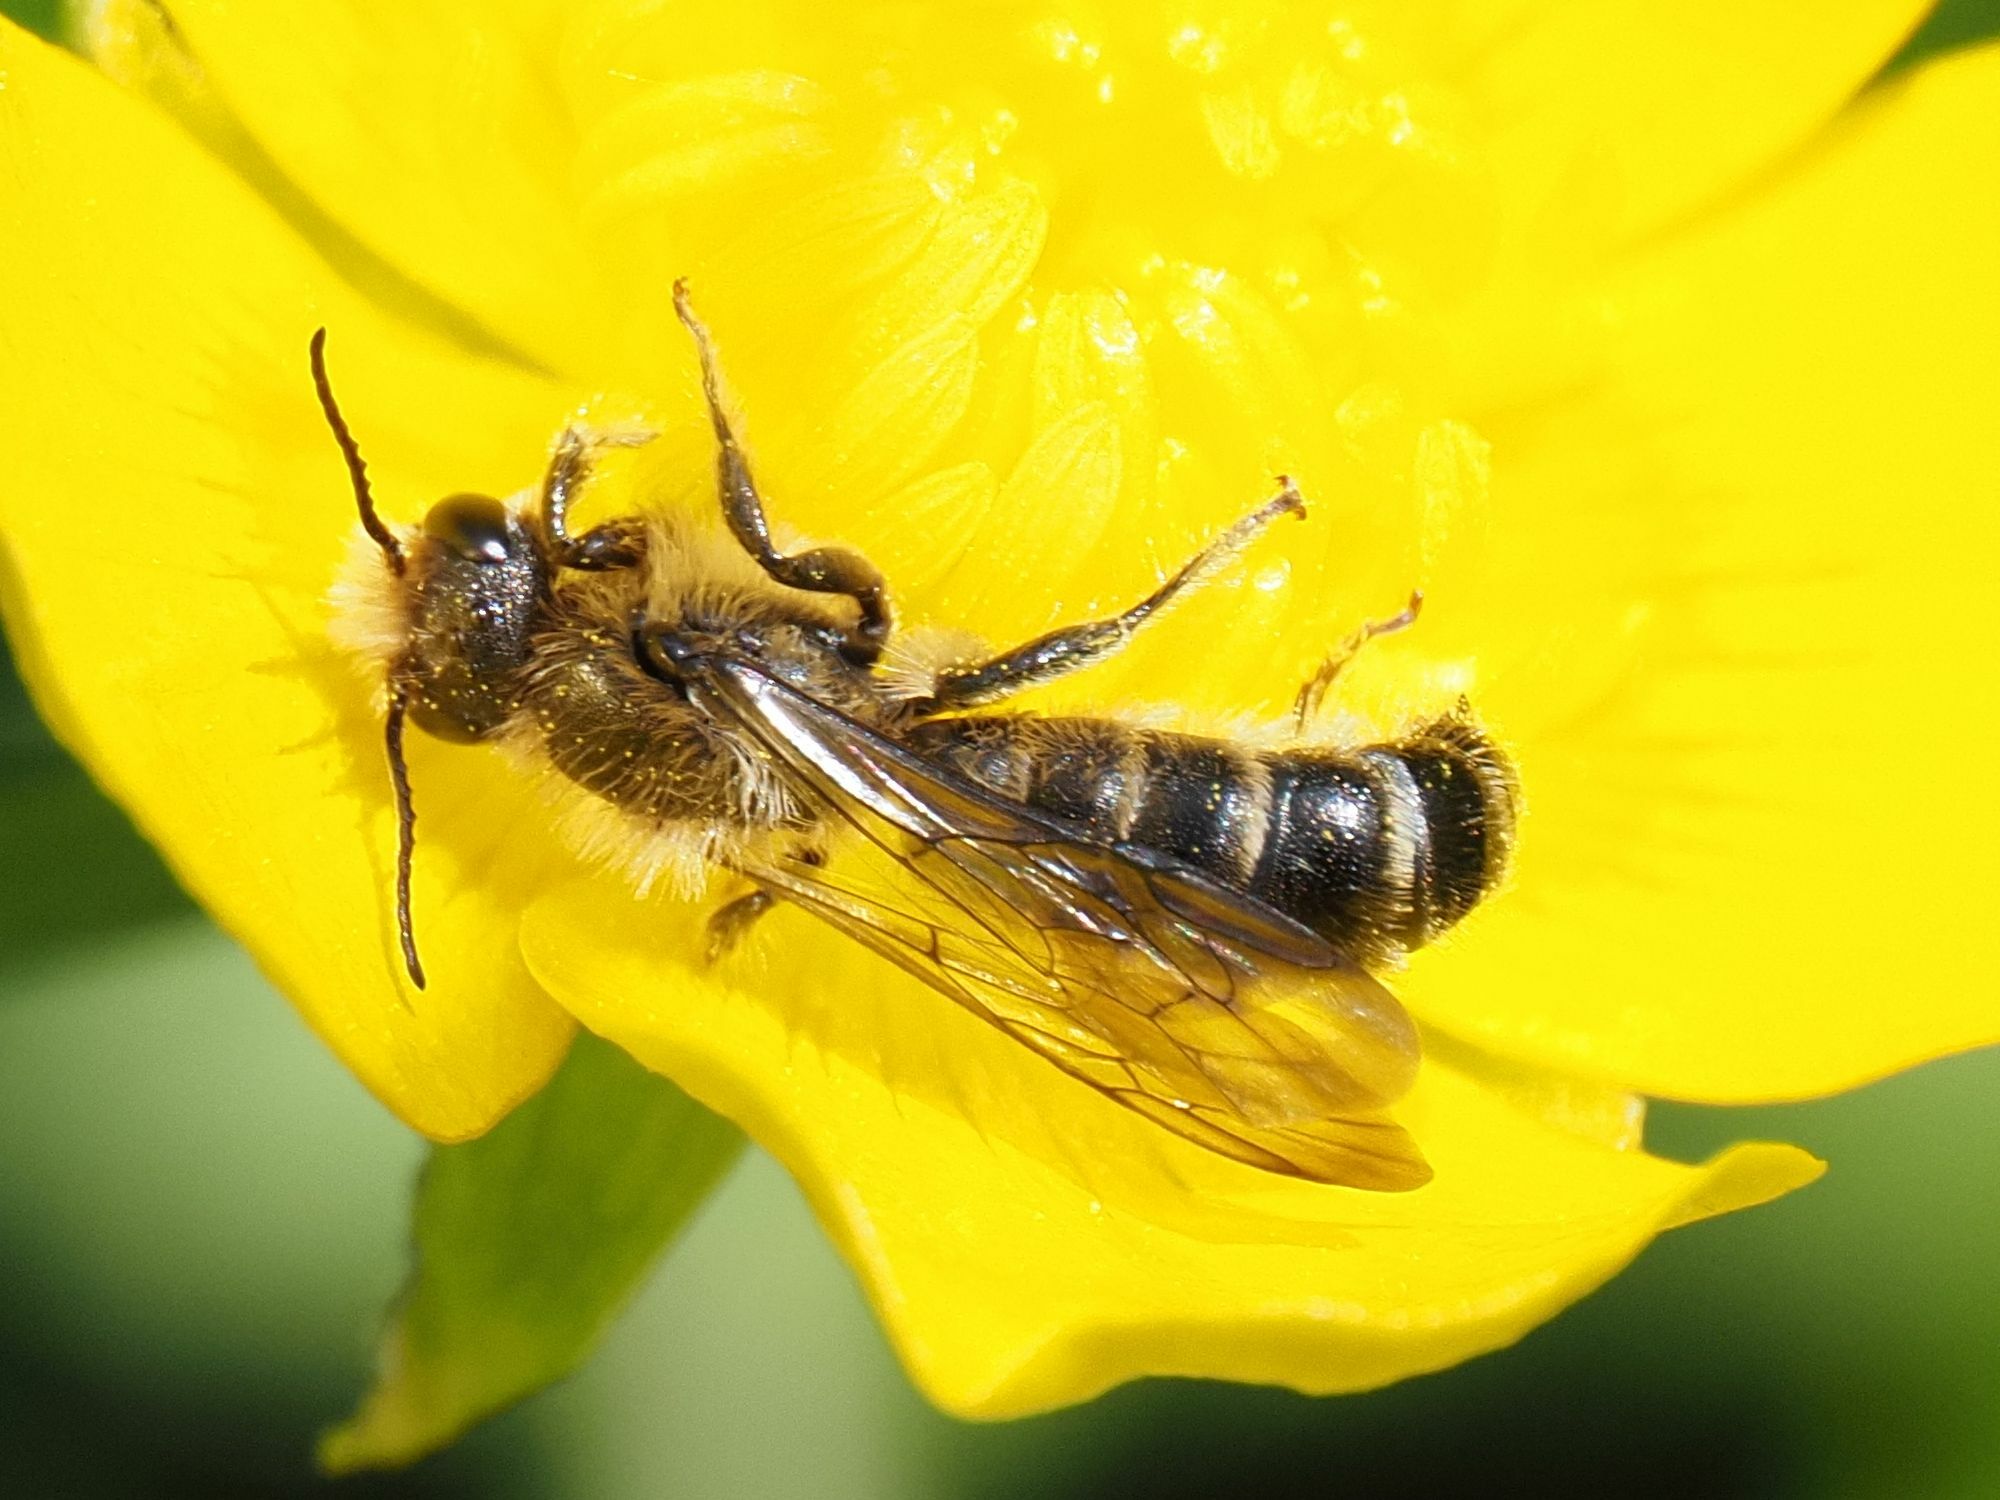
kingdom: Animalia
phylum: Arthropoda
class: Insecta
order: Hymenoptera
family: Megachilidae
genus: Chelostoma
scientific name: Chelostoma florisomne
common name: Sleepy carpenter bee
